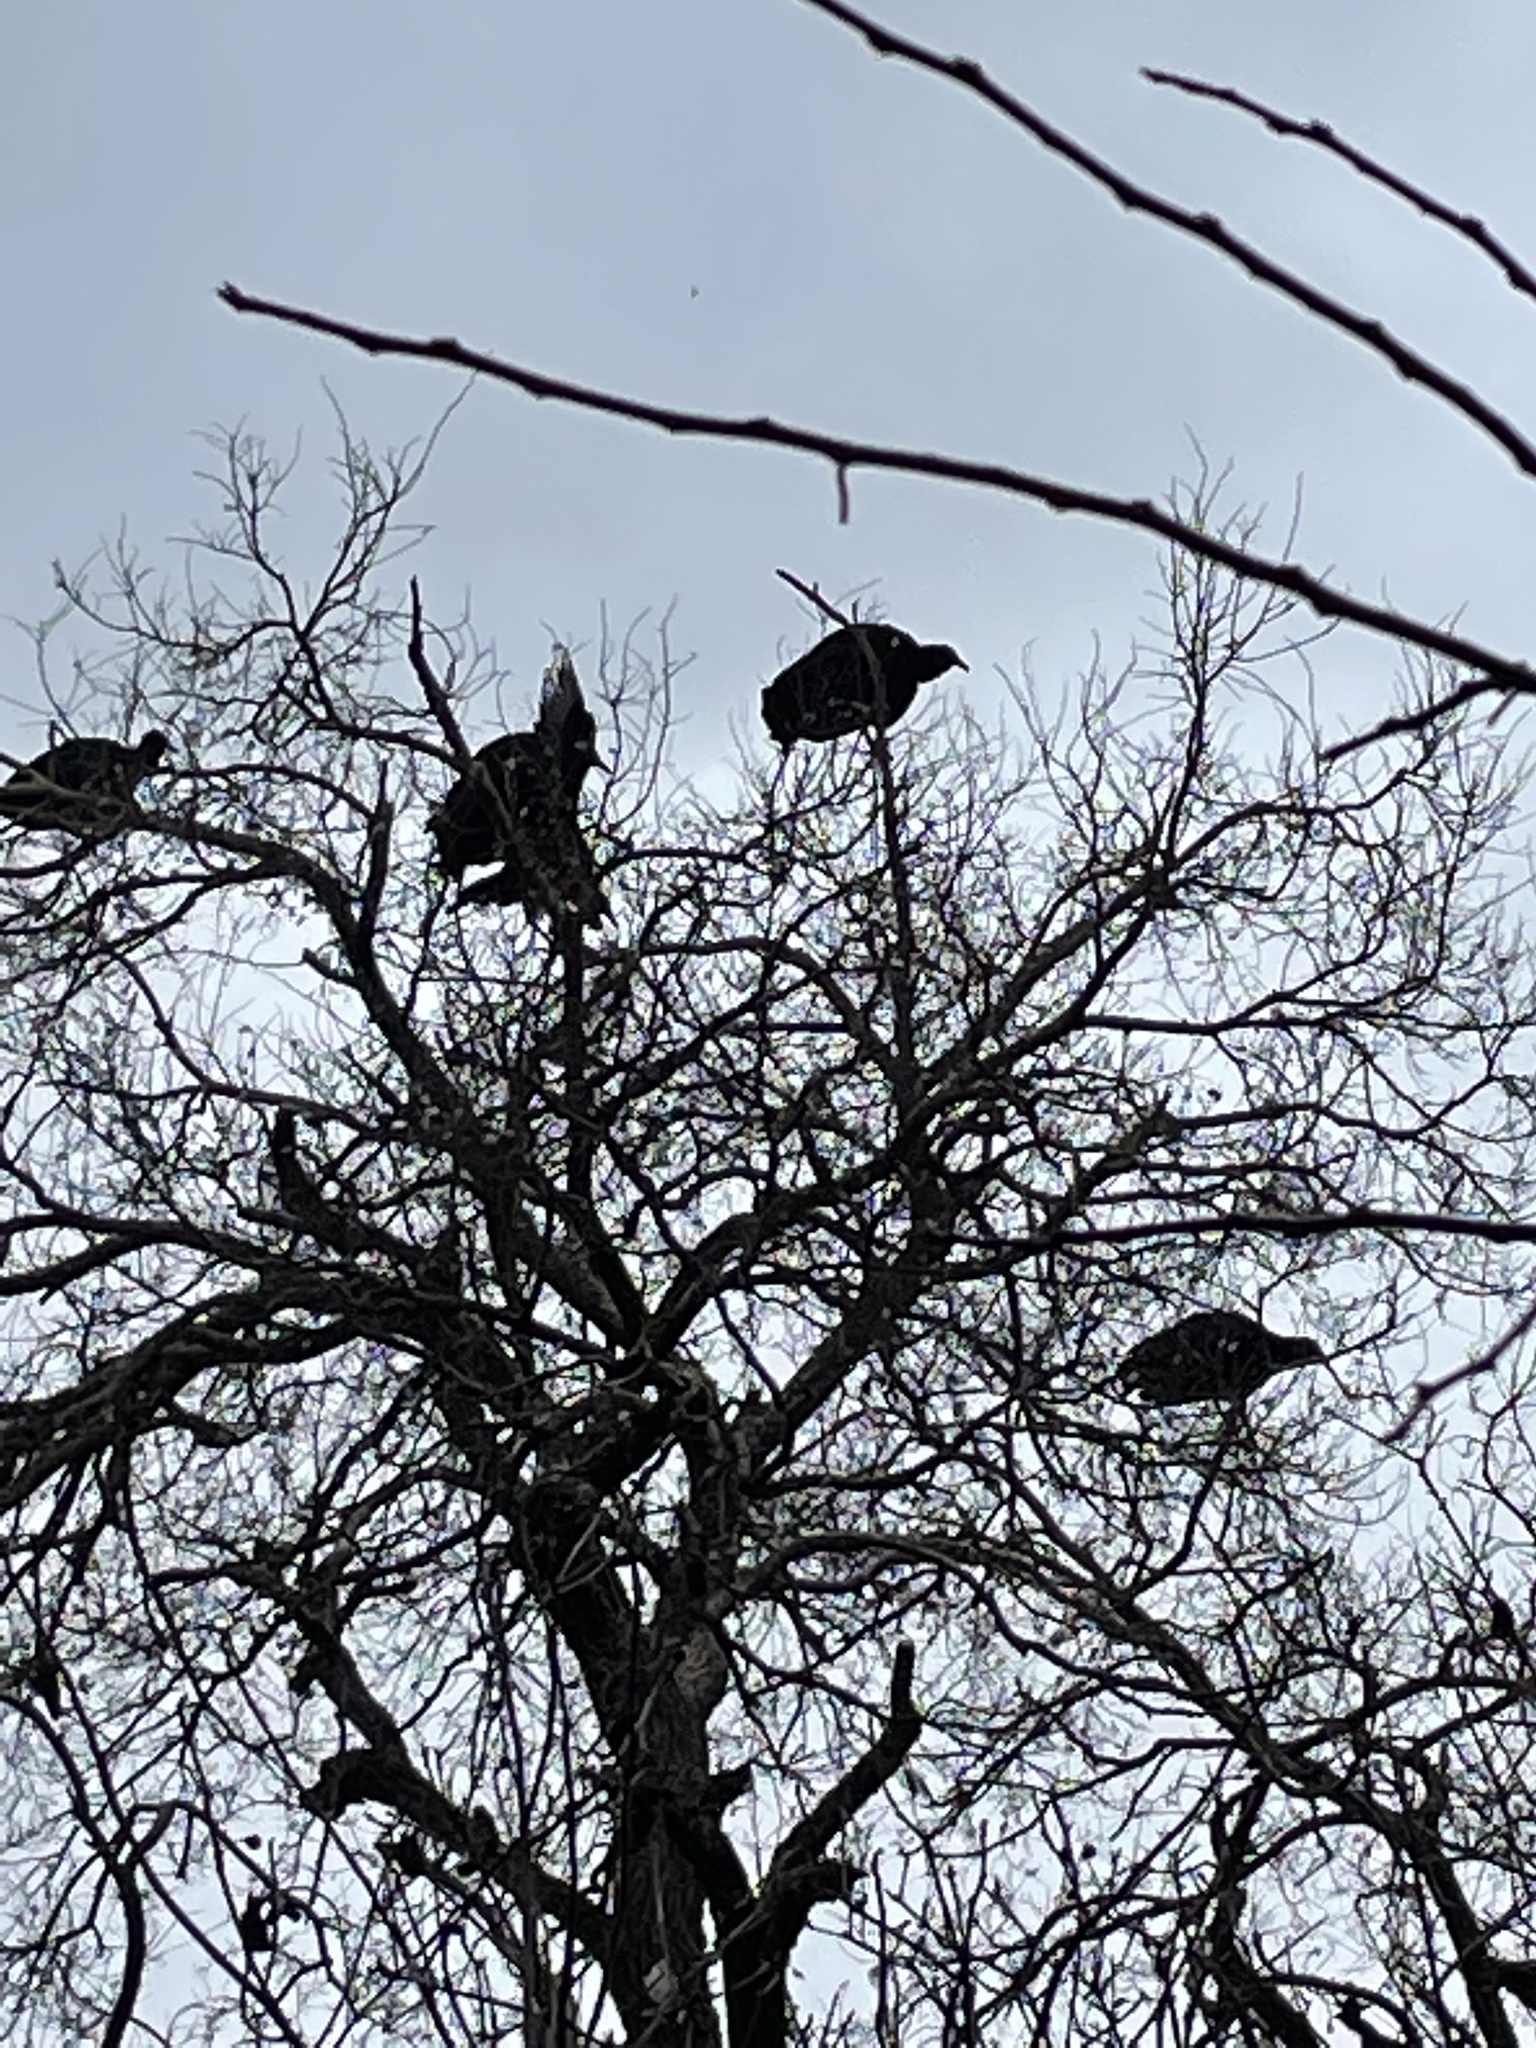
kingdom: Animalia
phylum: Chordata
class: Aves
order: Accipitriformes
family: Cathartidae
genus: Coragyps
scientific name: Coragyps atratus
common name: Black vulture
